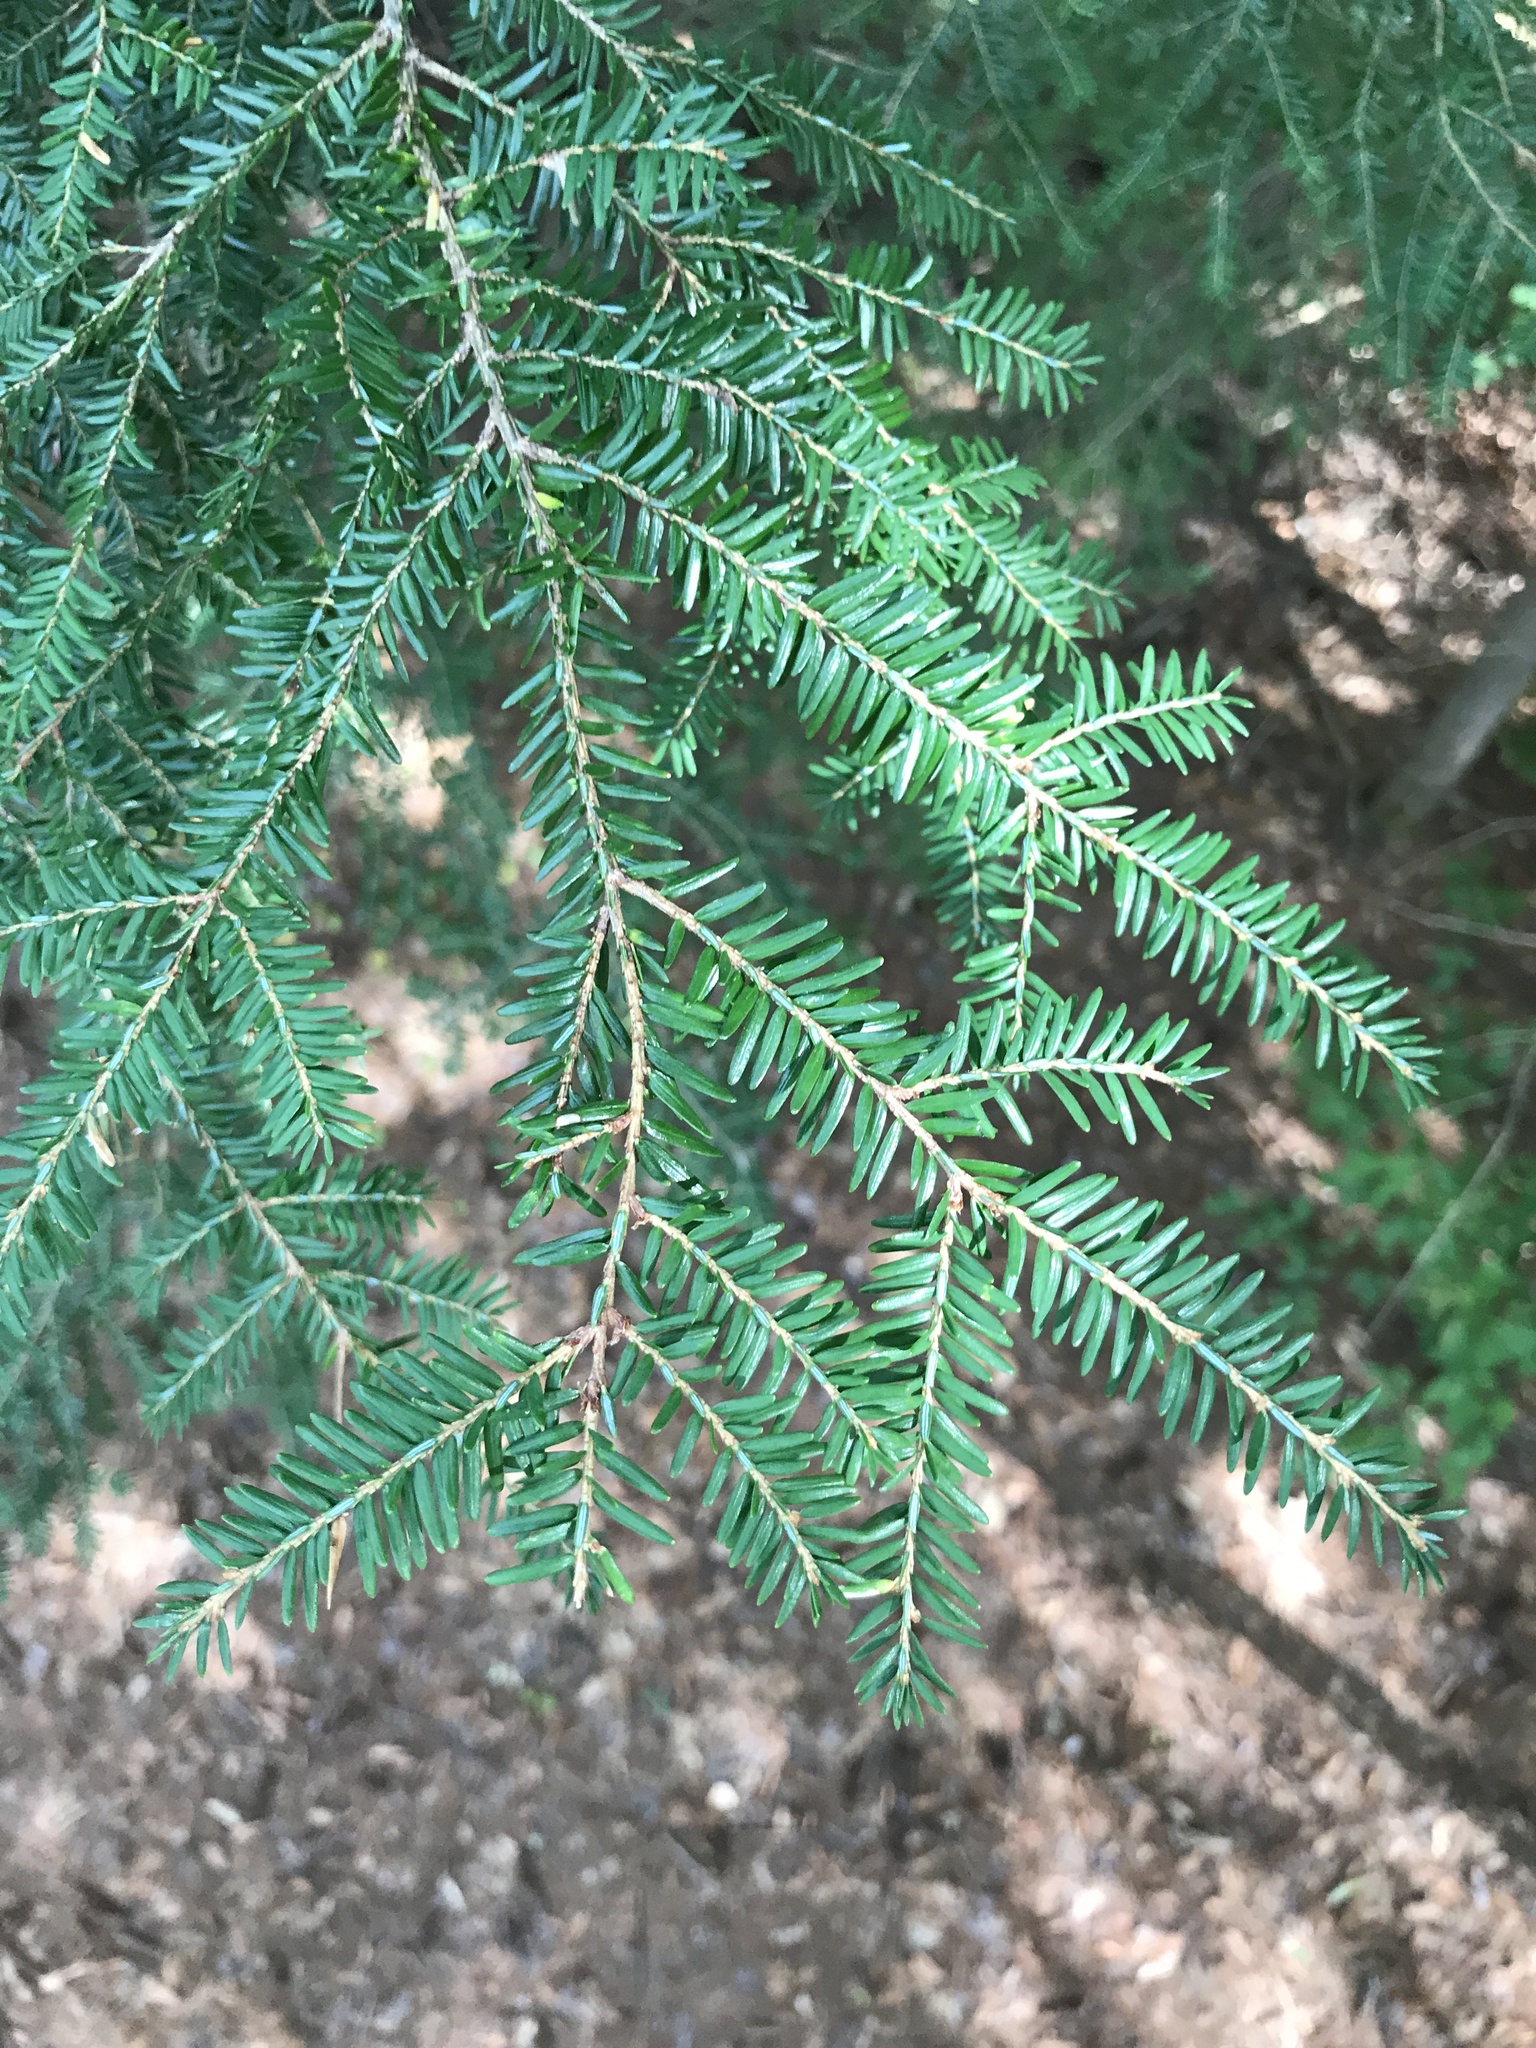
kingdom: Plantae
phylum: Tracheophyta
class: Pinopsida
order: Pinales
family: Pinaceae
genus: Tsuga
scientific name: Tsuga canadensis
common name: Eastern hemlock
